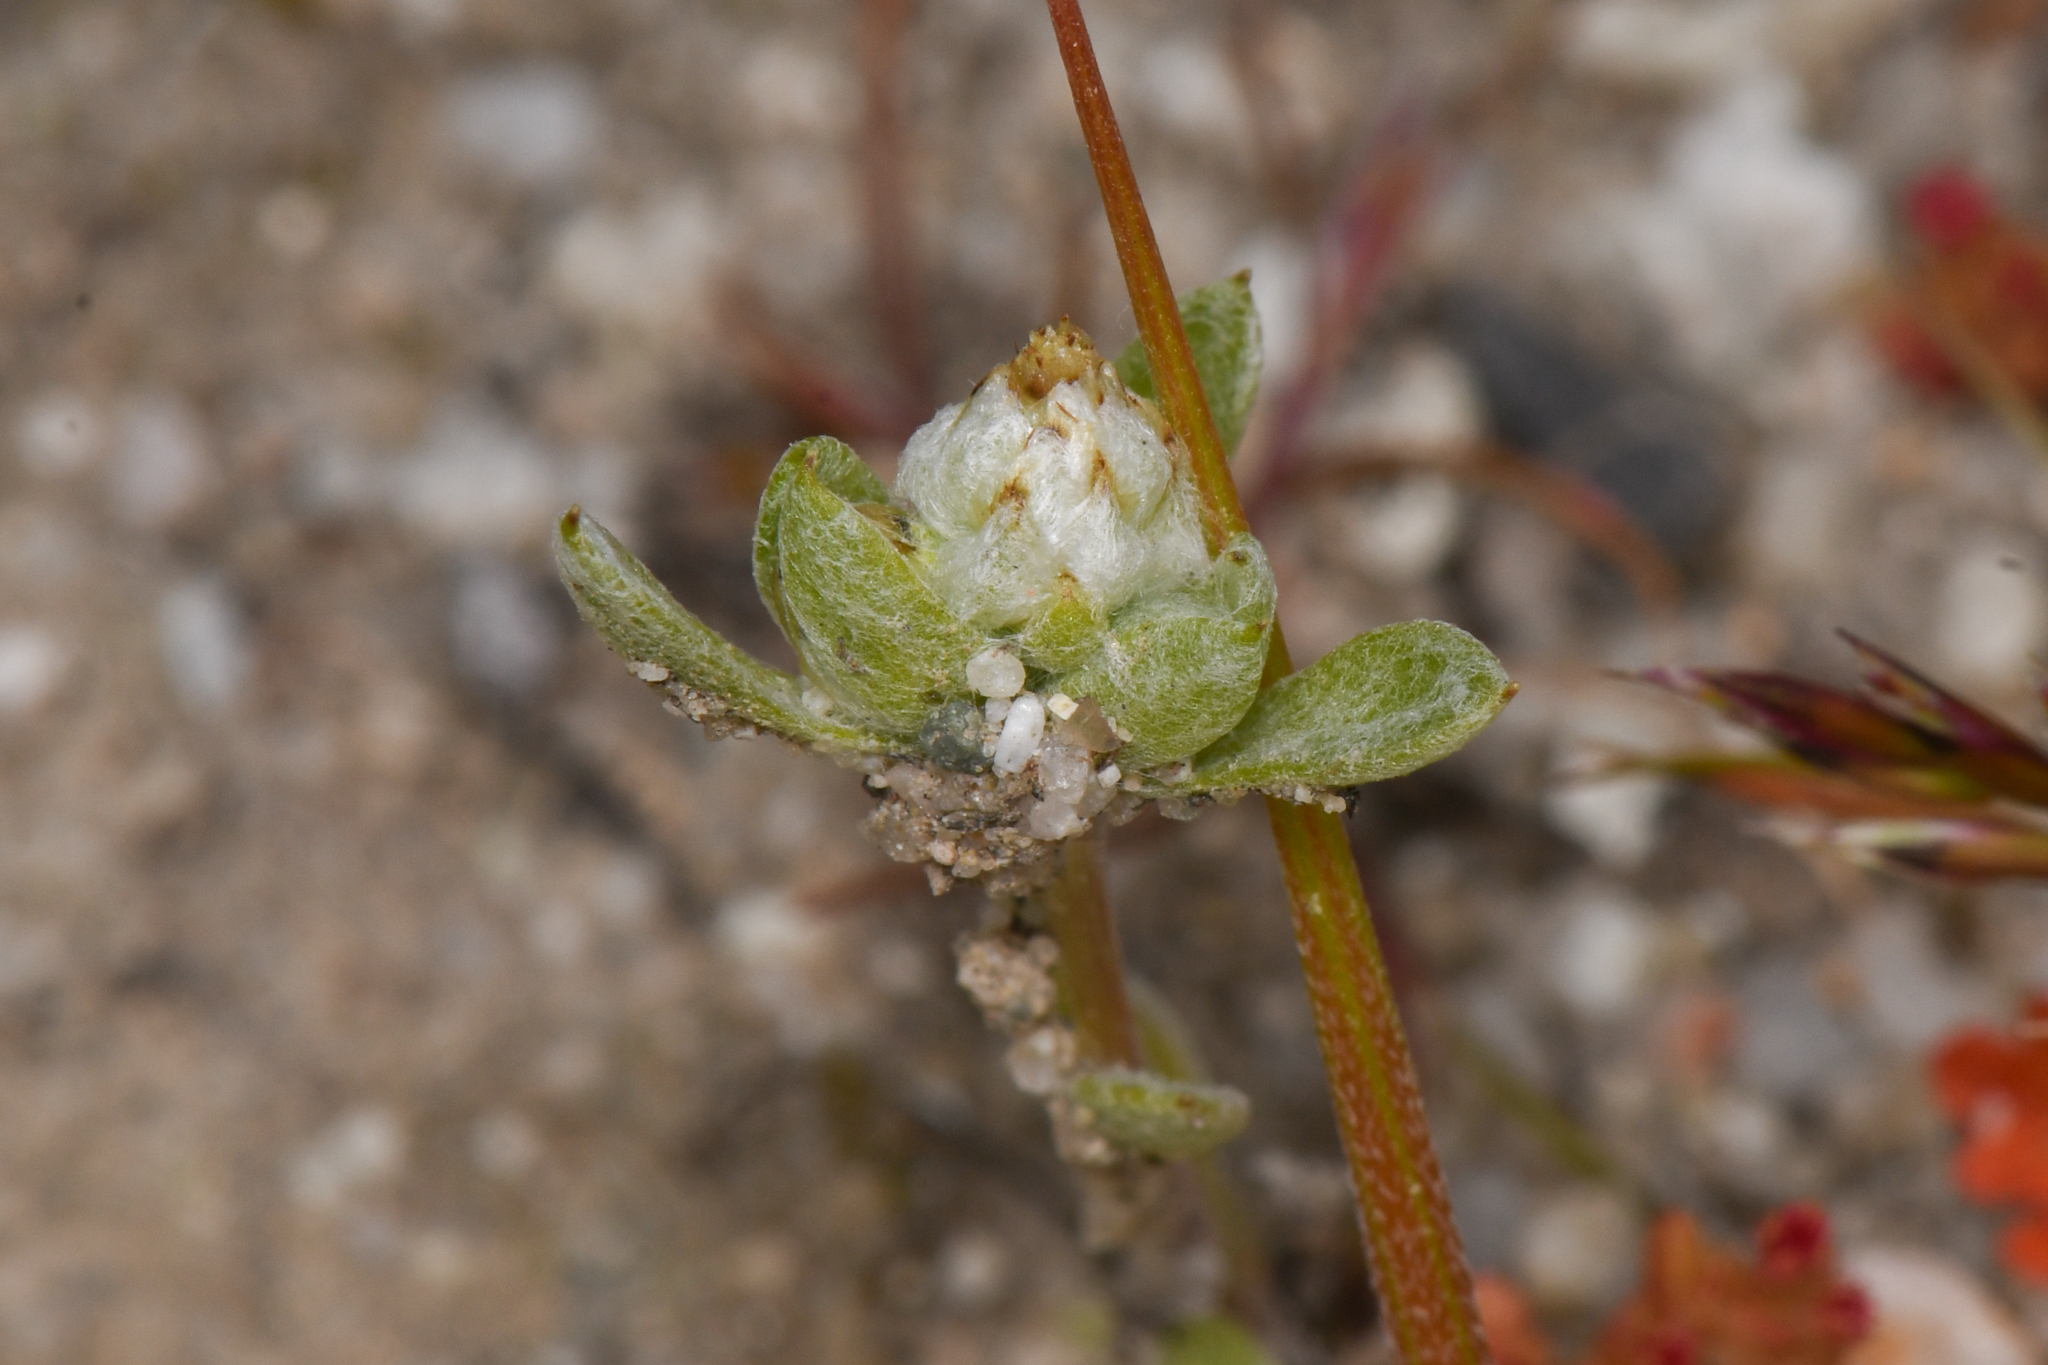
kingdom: Plantae
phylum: Tracheophyta
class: Magnoliopsida
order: Asterales
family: Asteraceae
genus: Stylocline
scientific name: Stylocline citroleum
